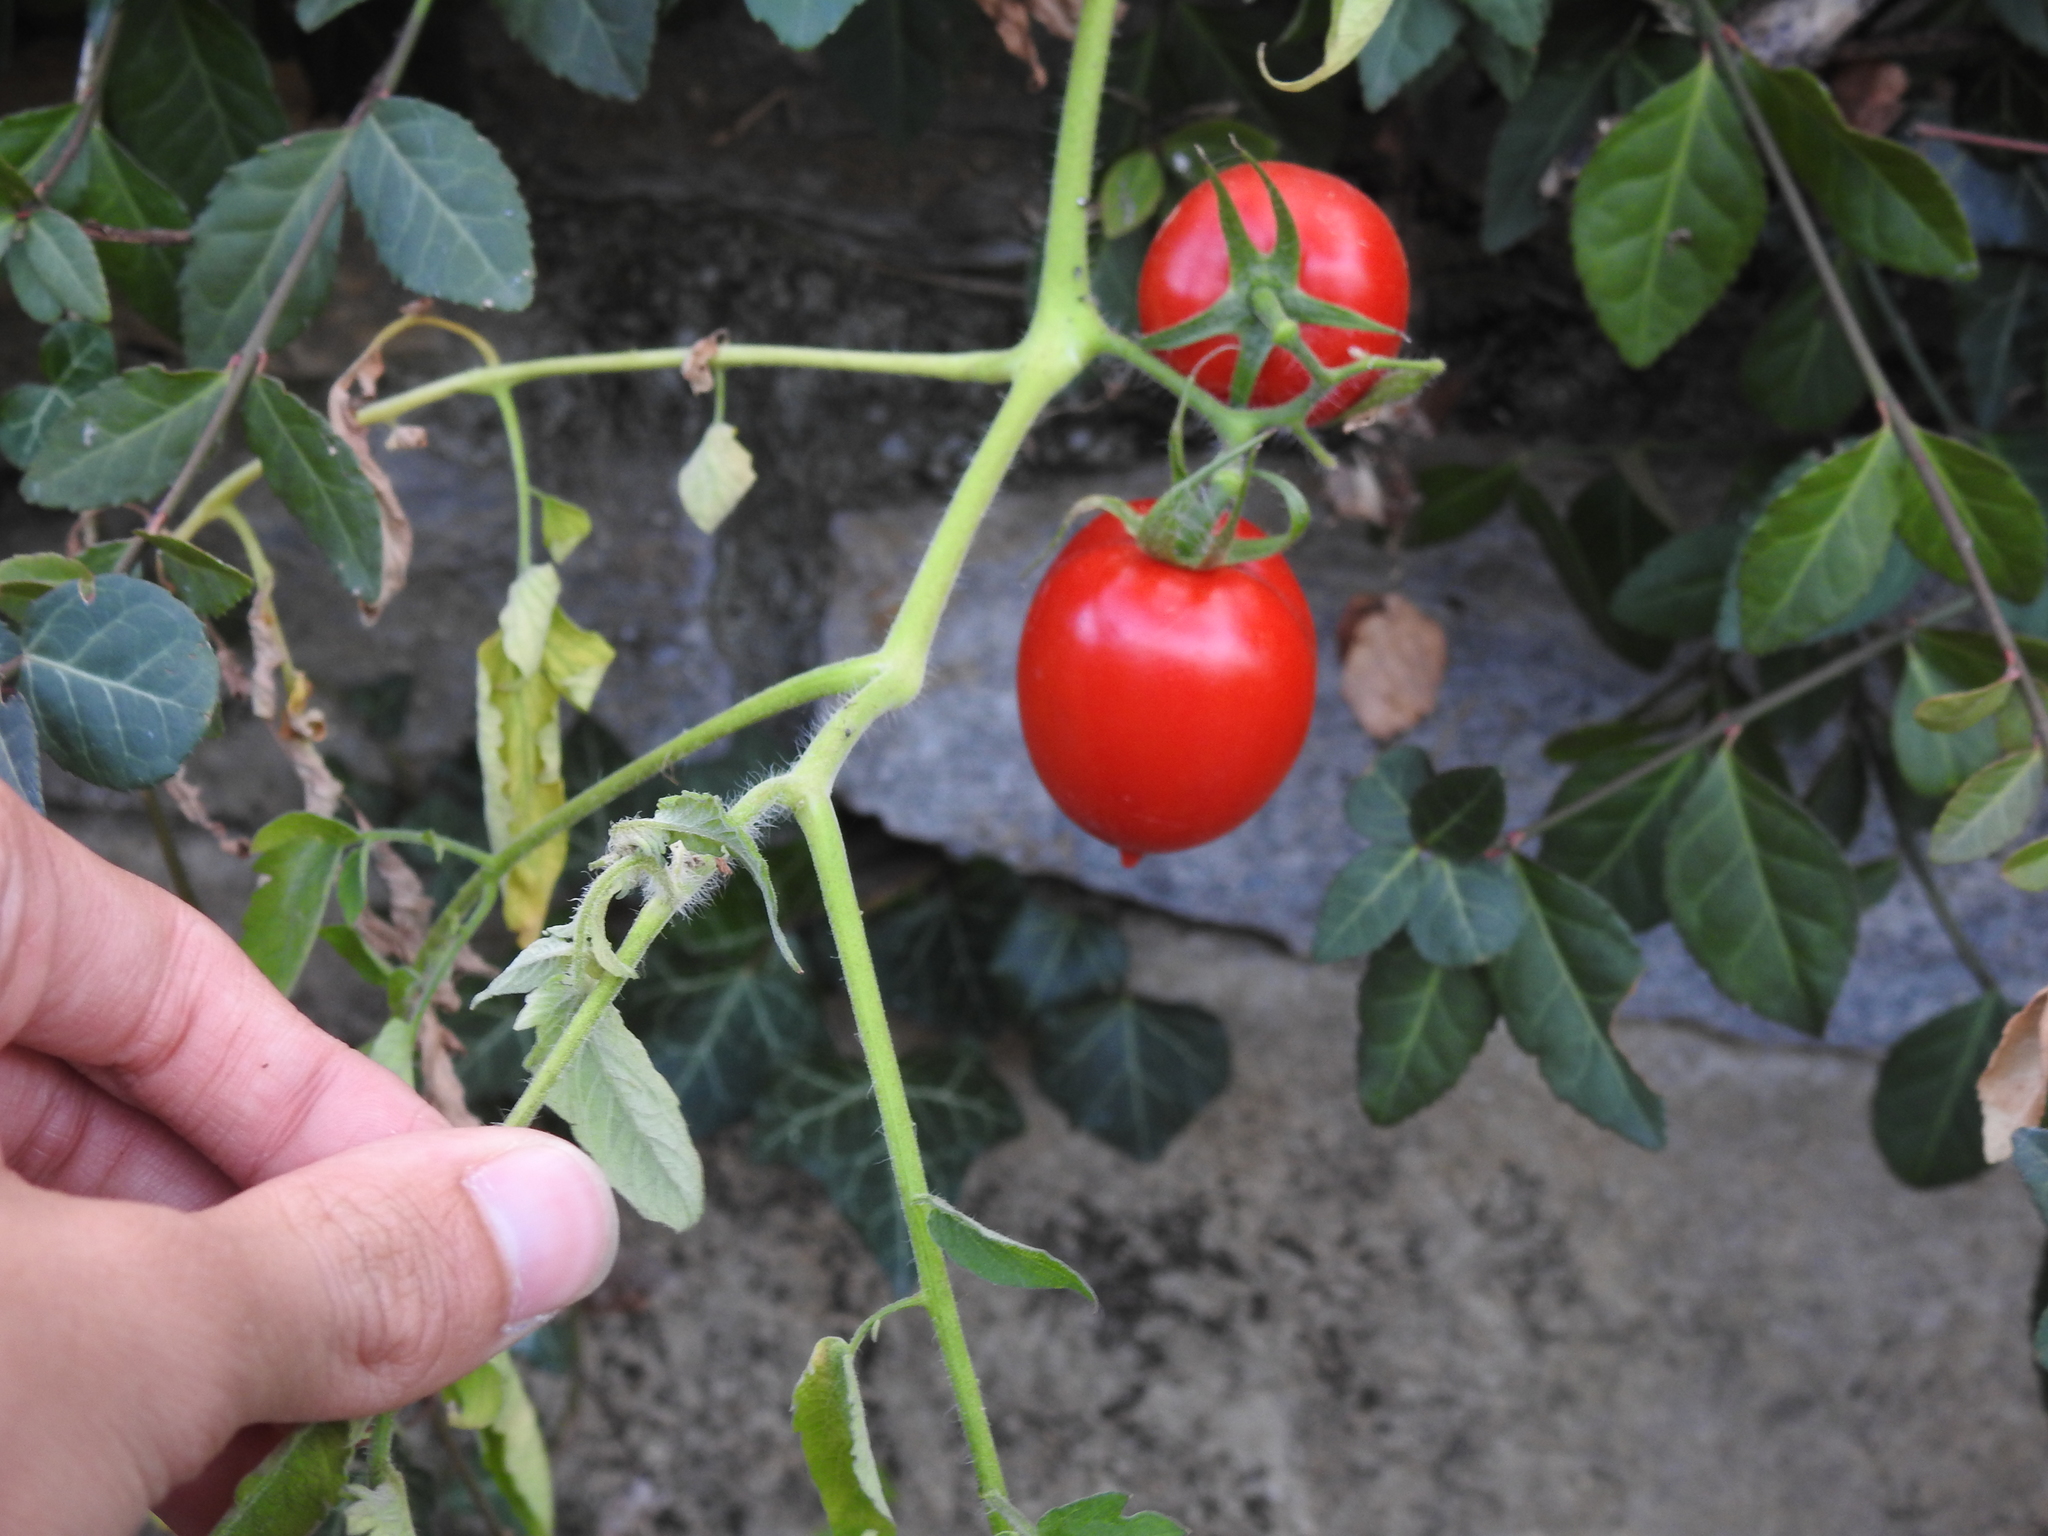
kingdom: Plantae
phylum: Tracheophyta
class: Magnoliopsida
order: Solanales
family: Solanaceae
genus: Solanum
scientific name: Solanum lycopersicum
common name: Garden tomato
